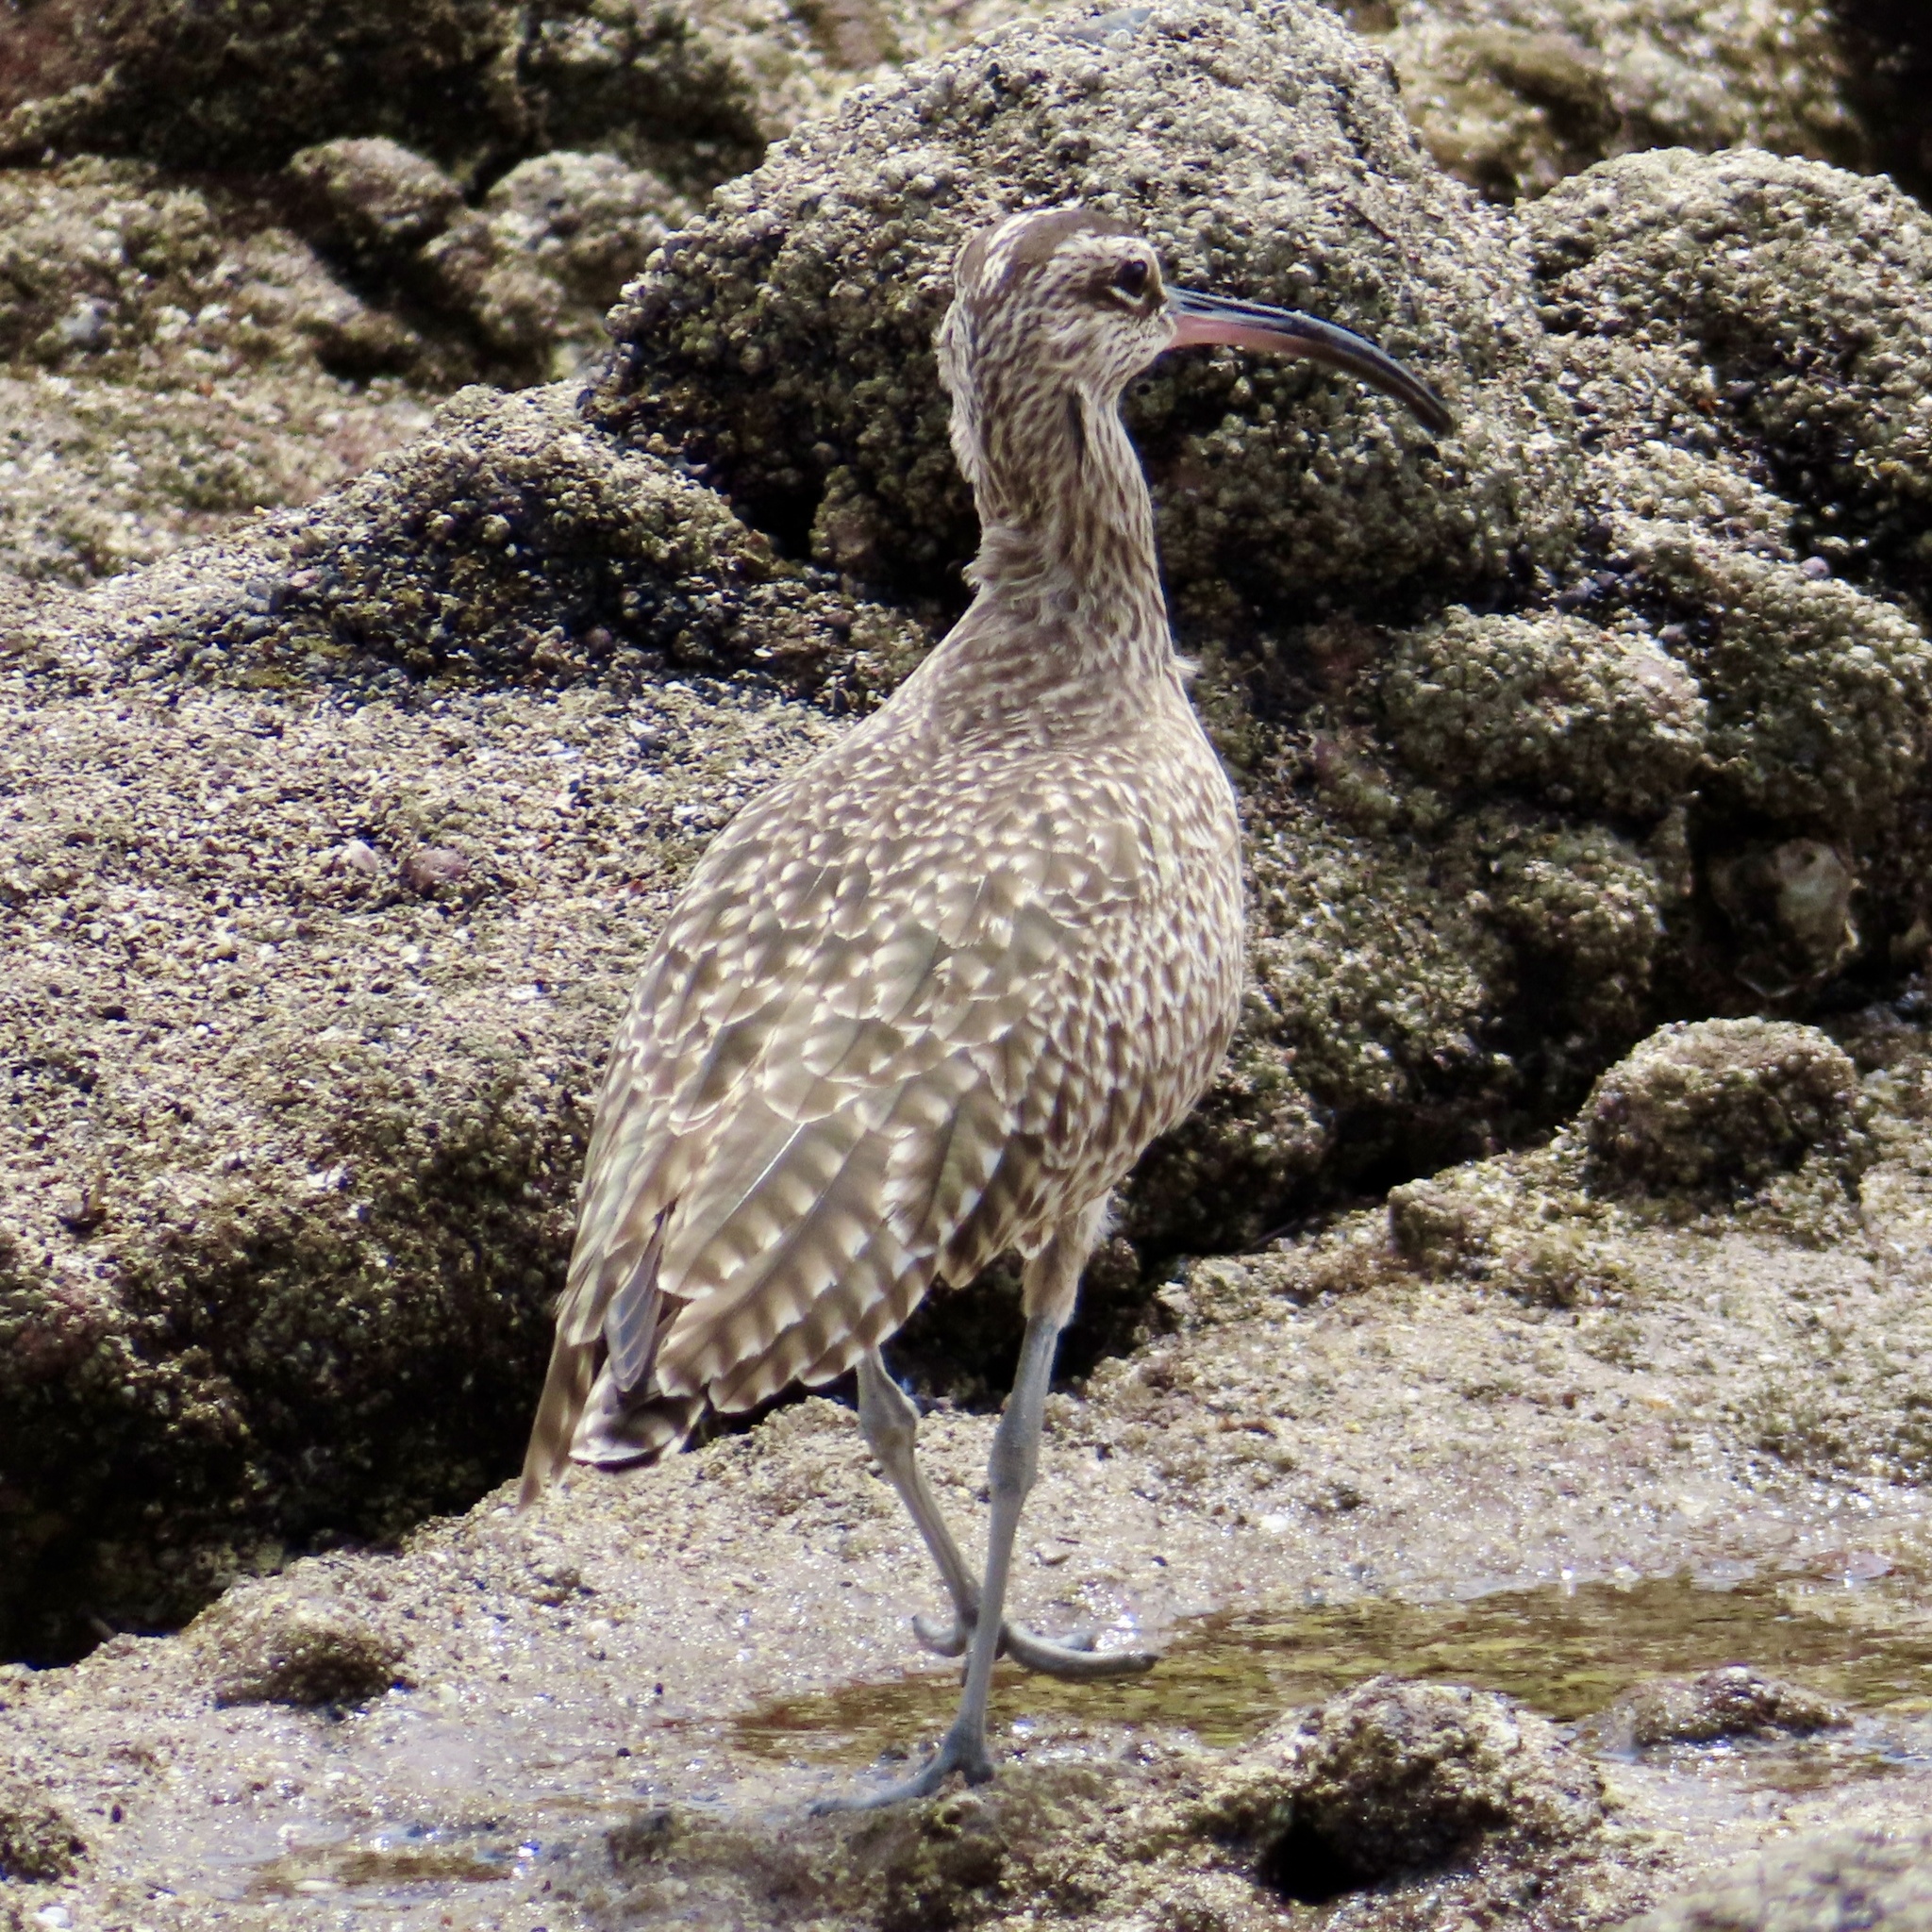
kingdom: Animalia
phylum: Chordata
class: Aves
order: Charadriiformes
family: Scolopacidae
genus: Numenius
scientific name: Numenius phaeopus
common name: Whimbrel
